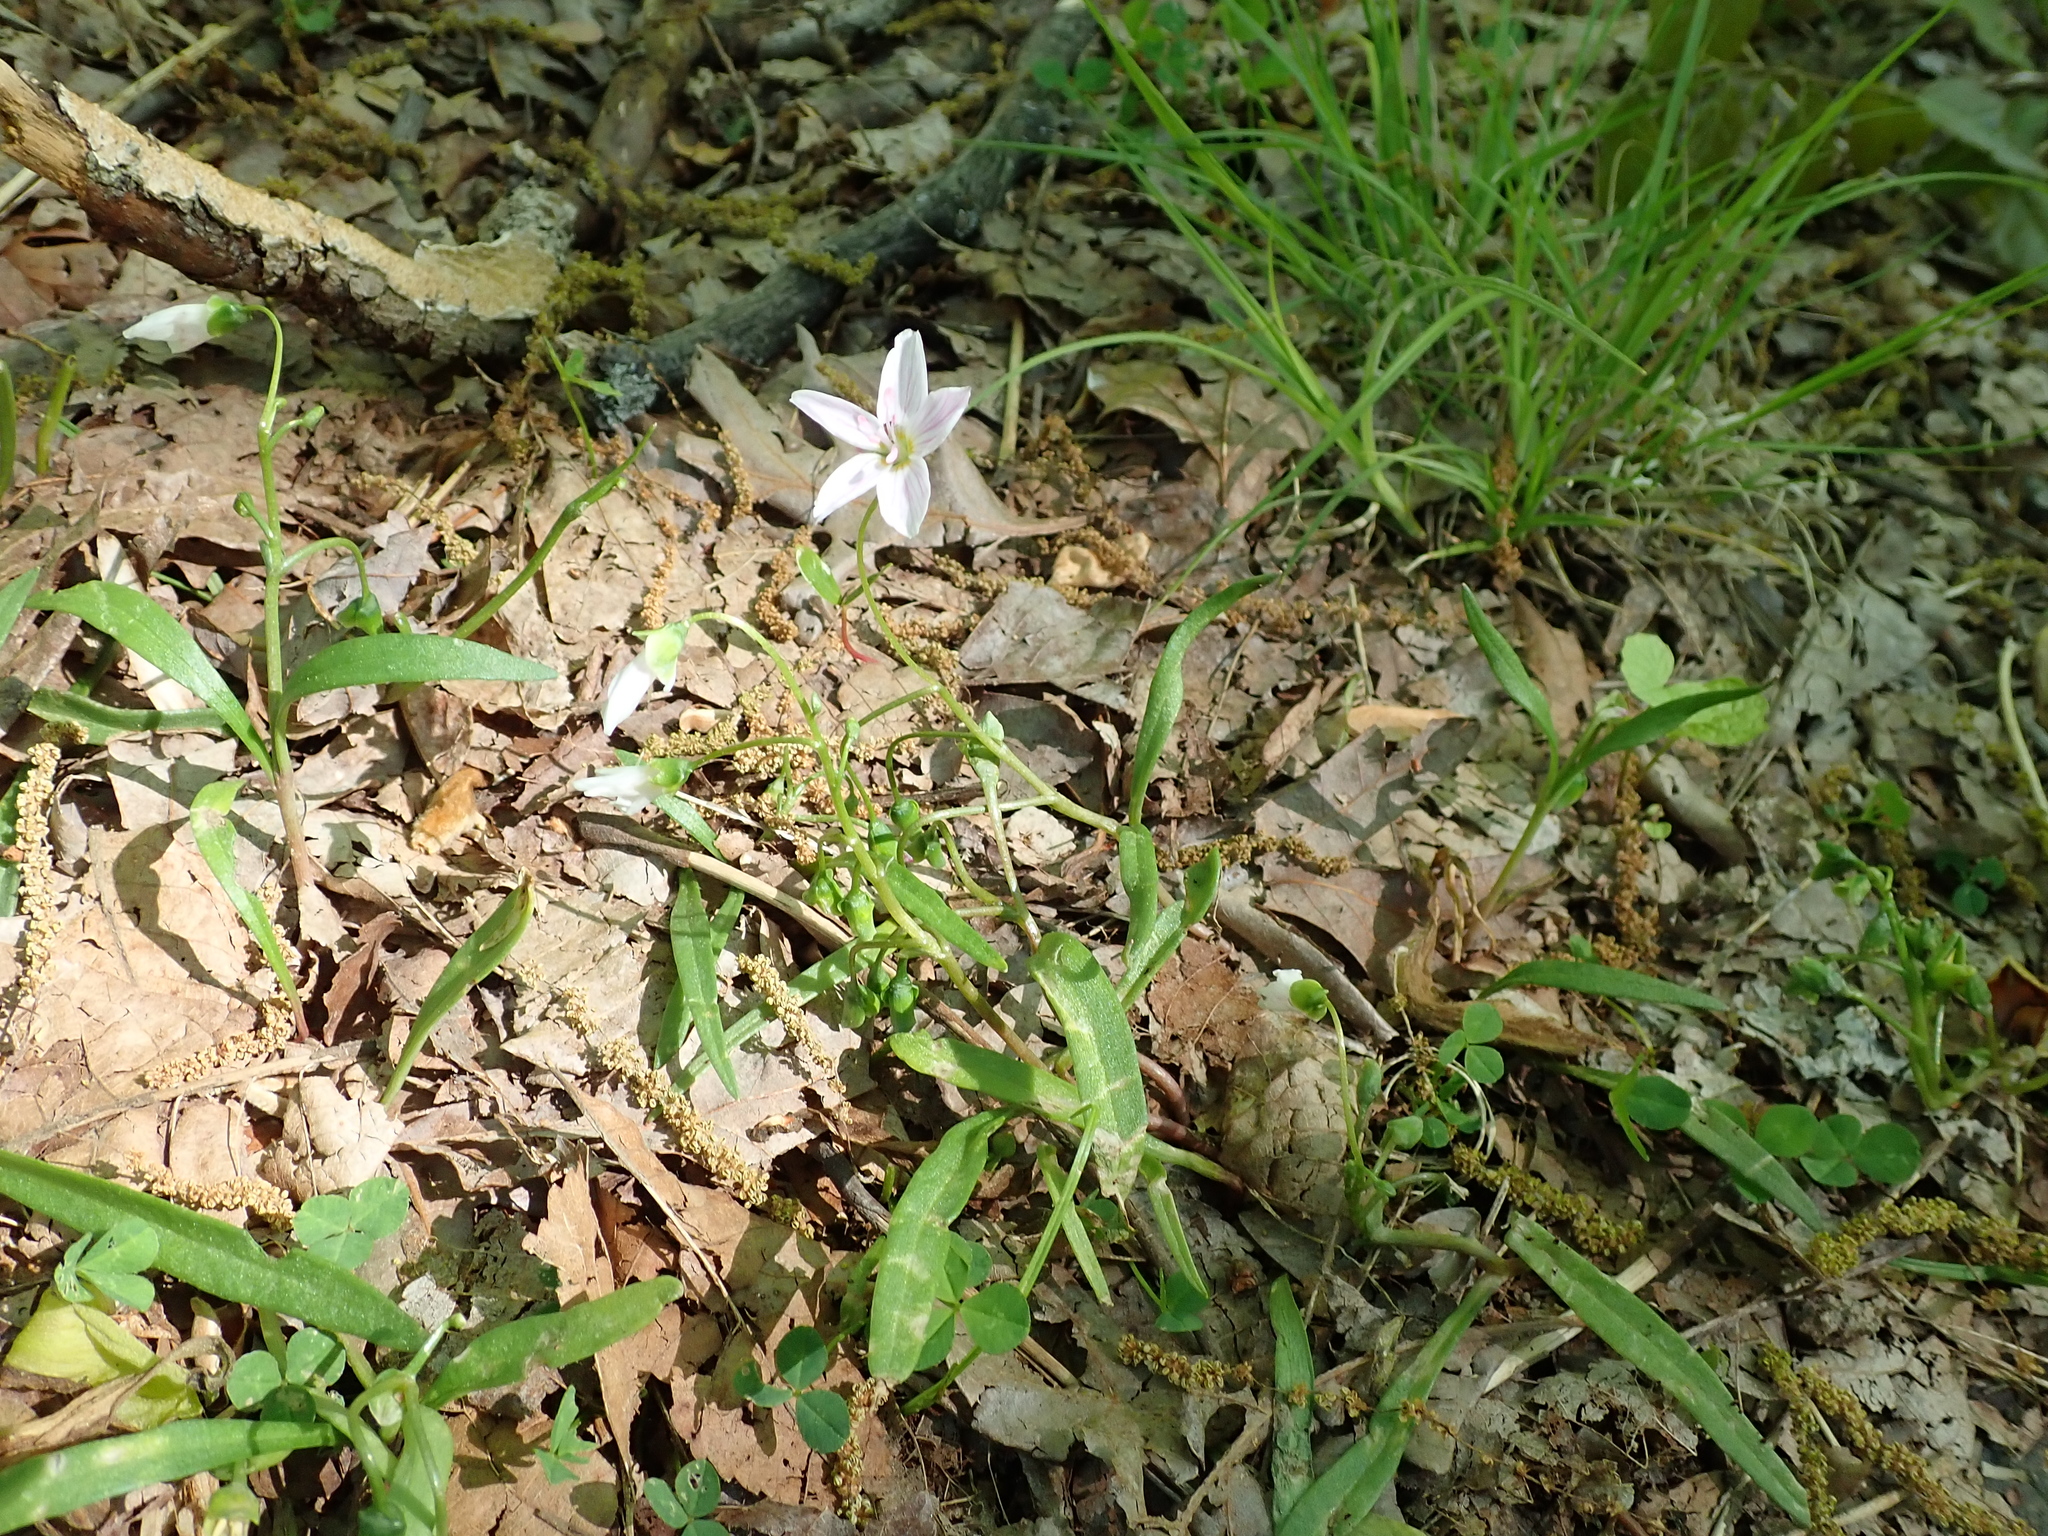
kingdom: Plantae
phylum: Tracheophyta
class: Magnoliopsida
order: Caryophyllales
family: Montiaceae
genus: Claytonia
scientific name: Claytonia virginica
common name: Virginia springbeauty
